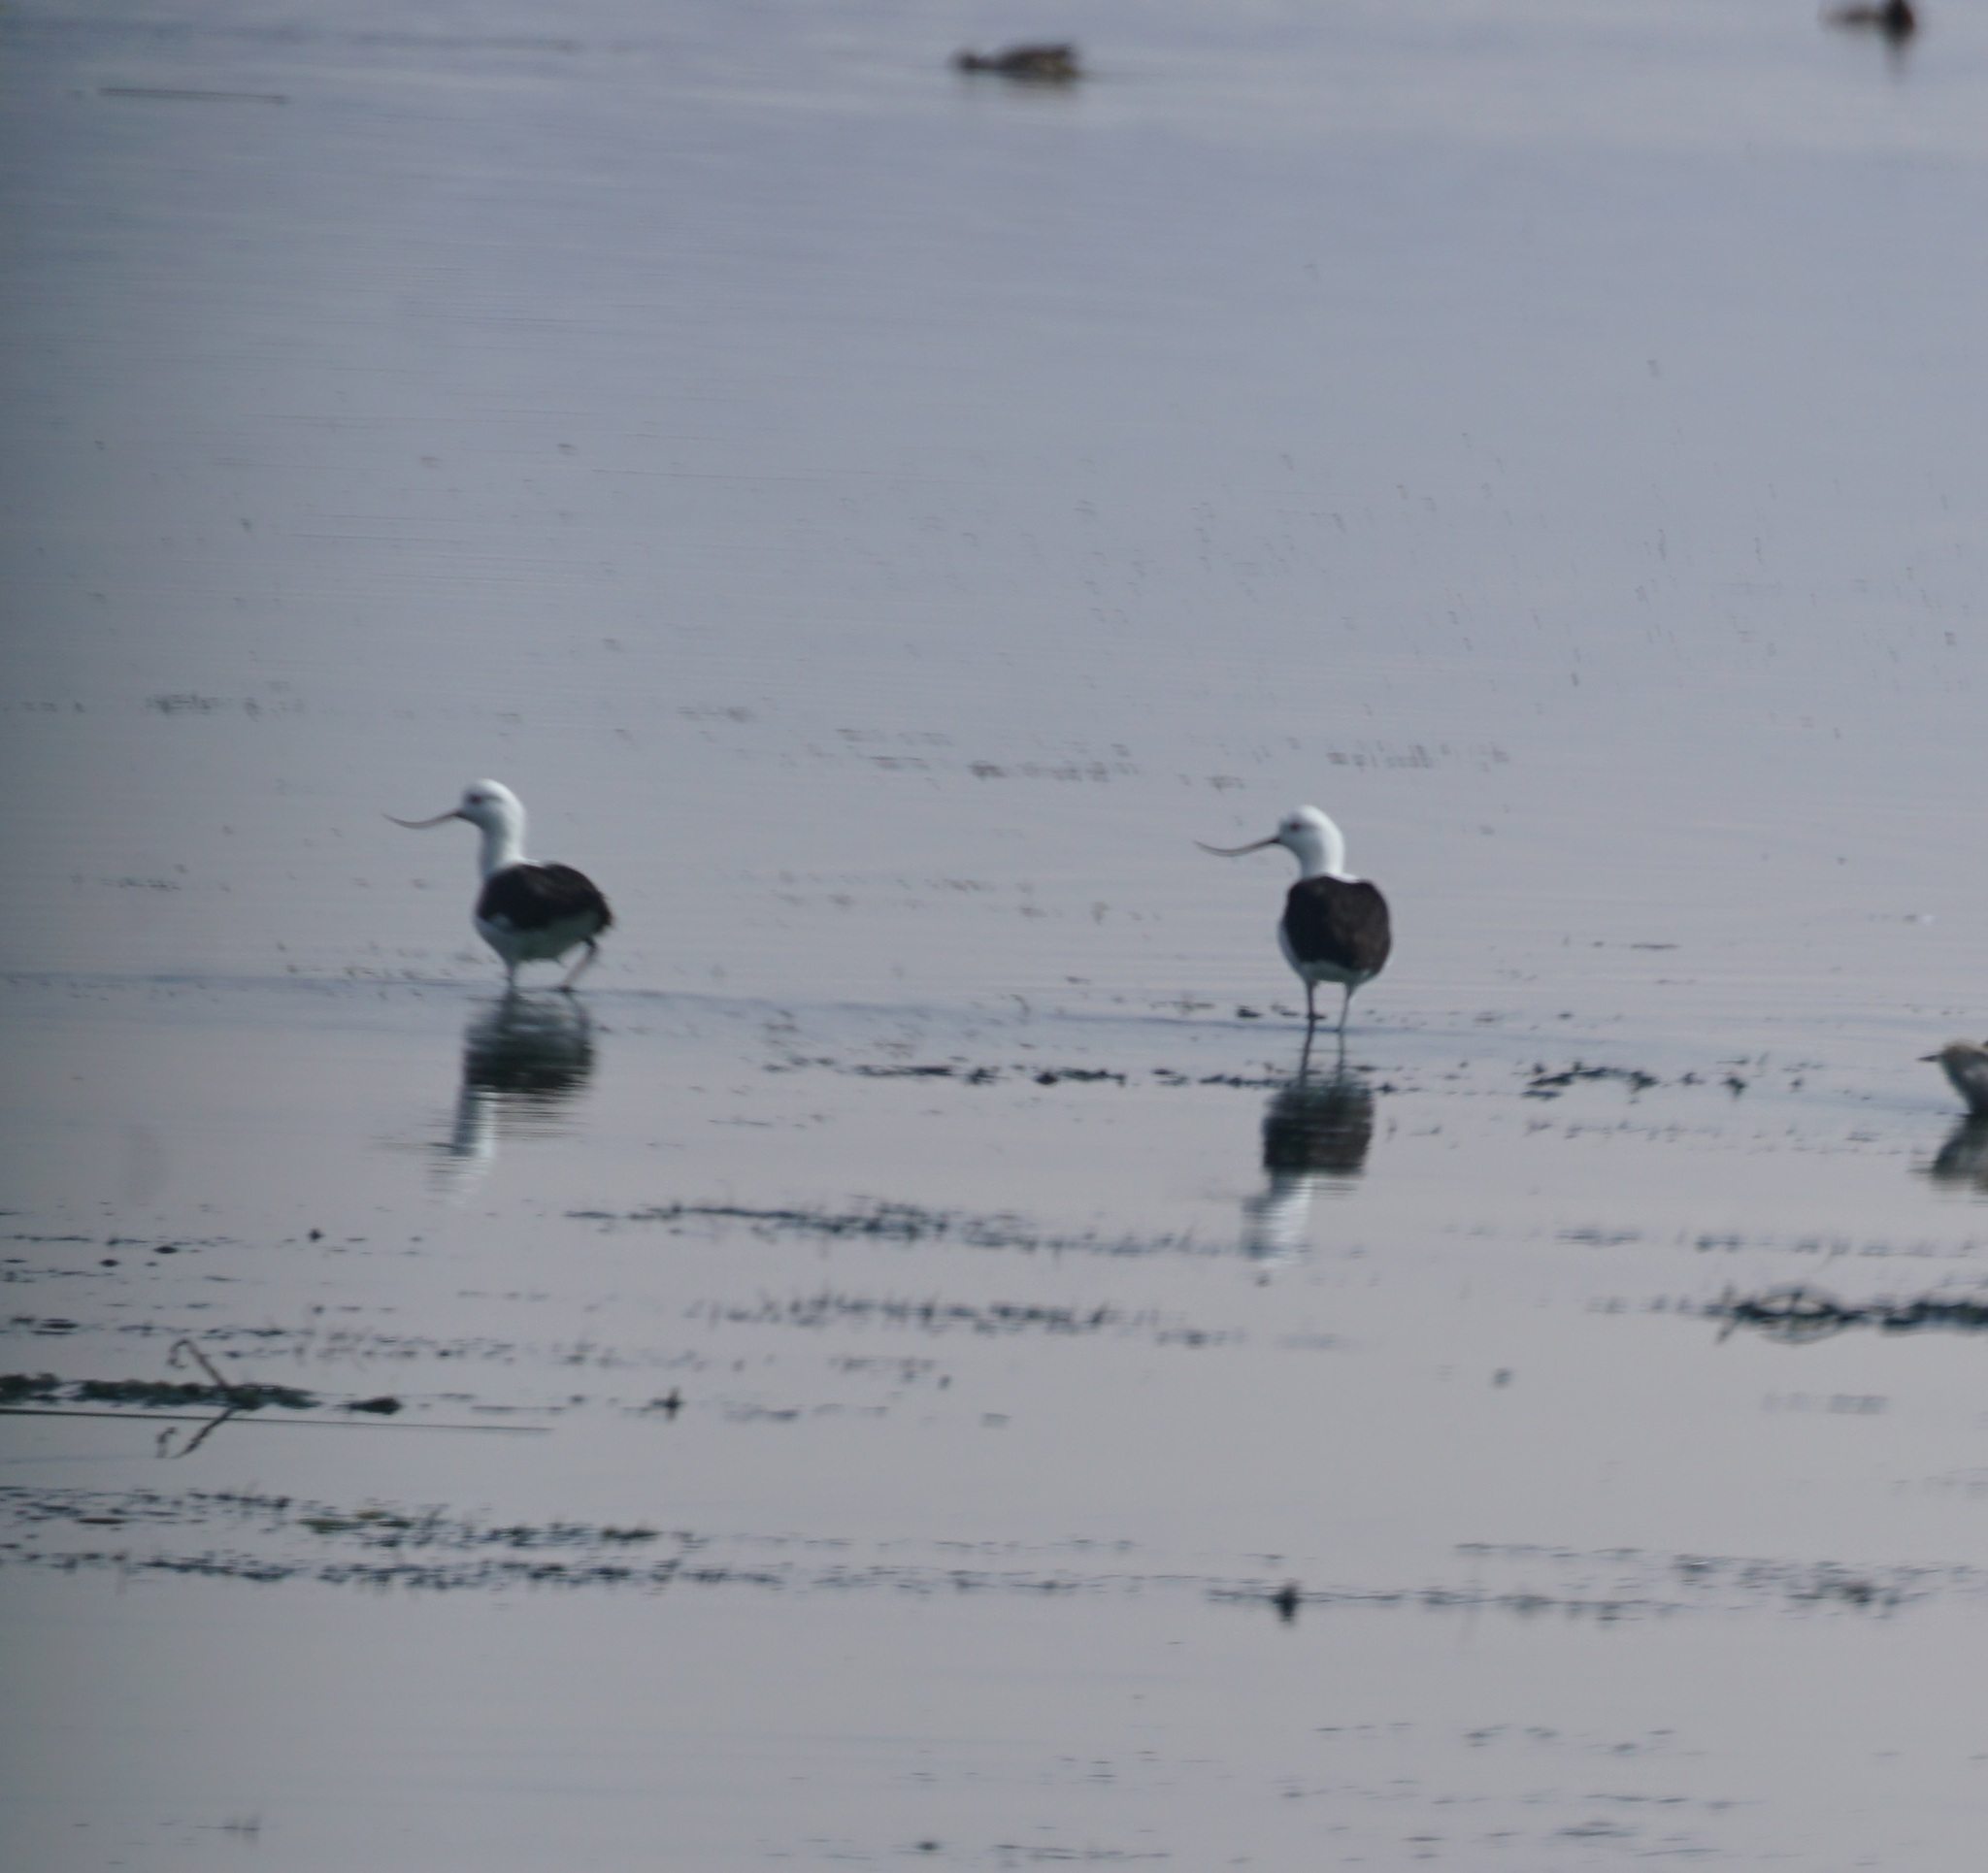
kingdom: Animalia
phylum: Chordata
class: Aves
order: Charadriiformes
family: Recurvirostridae
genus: Recurvirostra
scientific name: Recurvirostra andina
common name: Andean avocet
